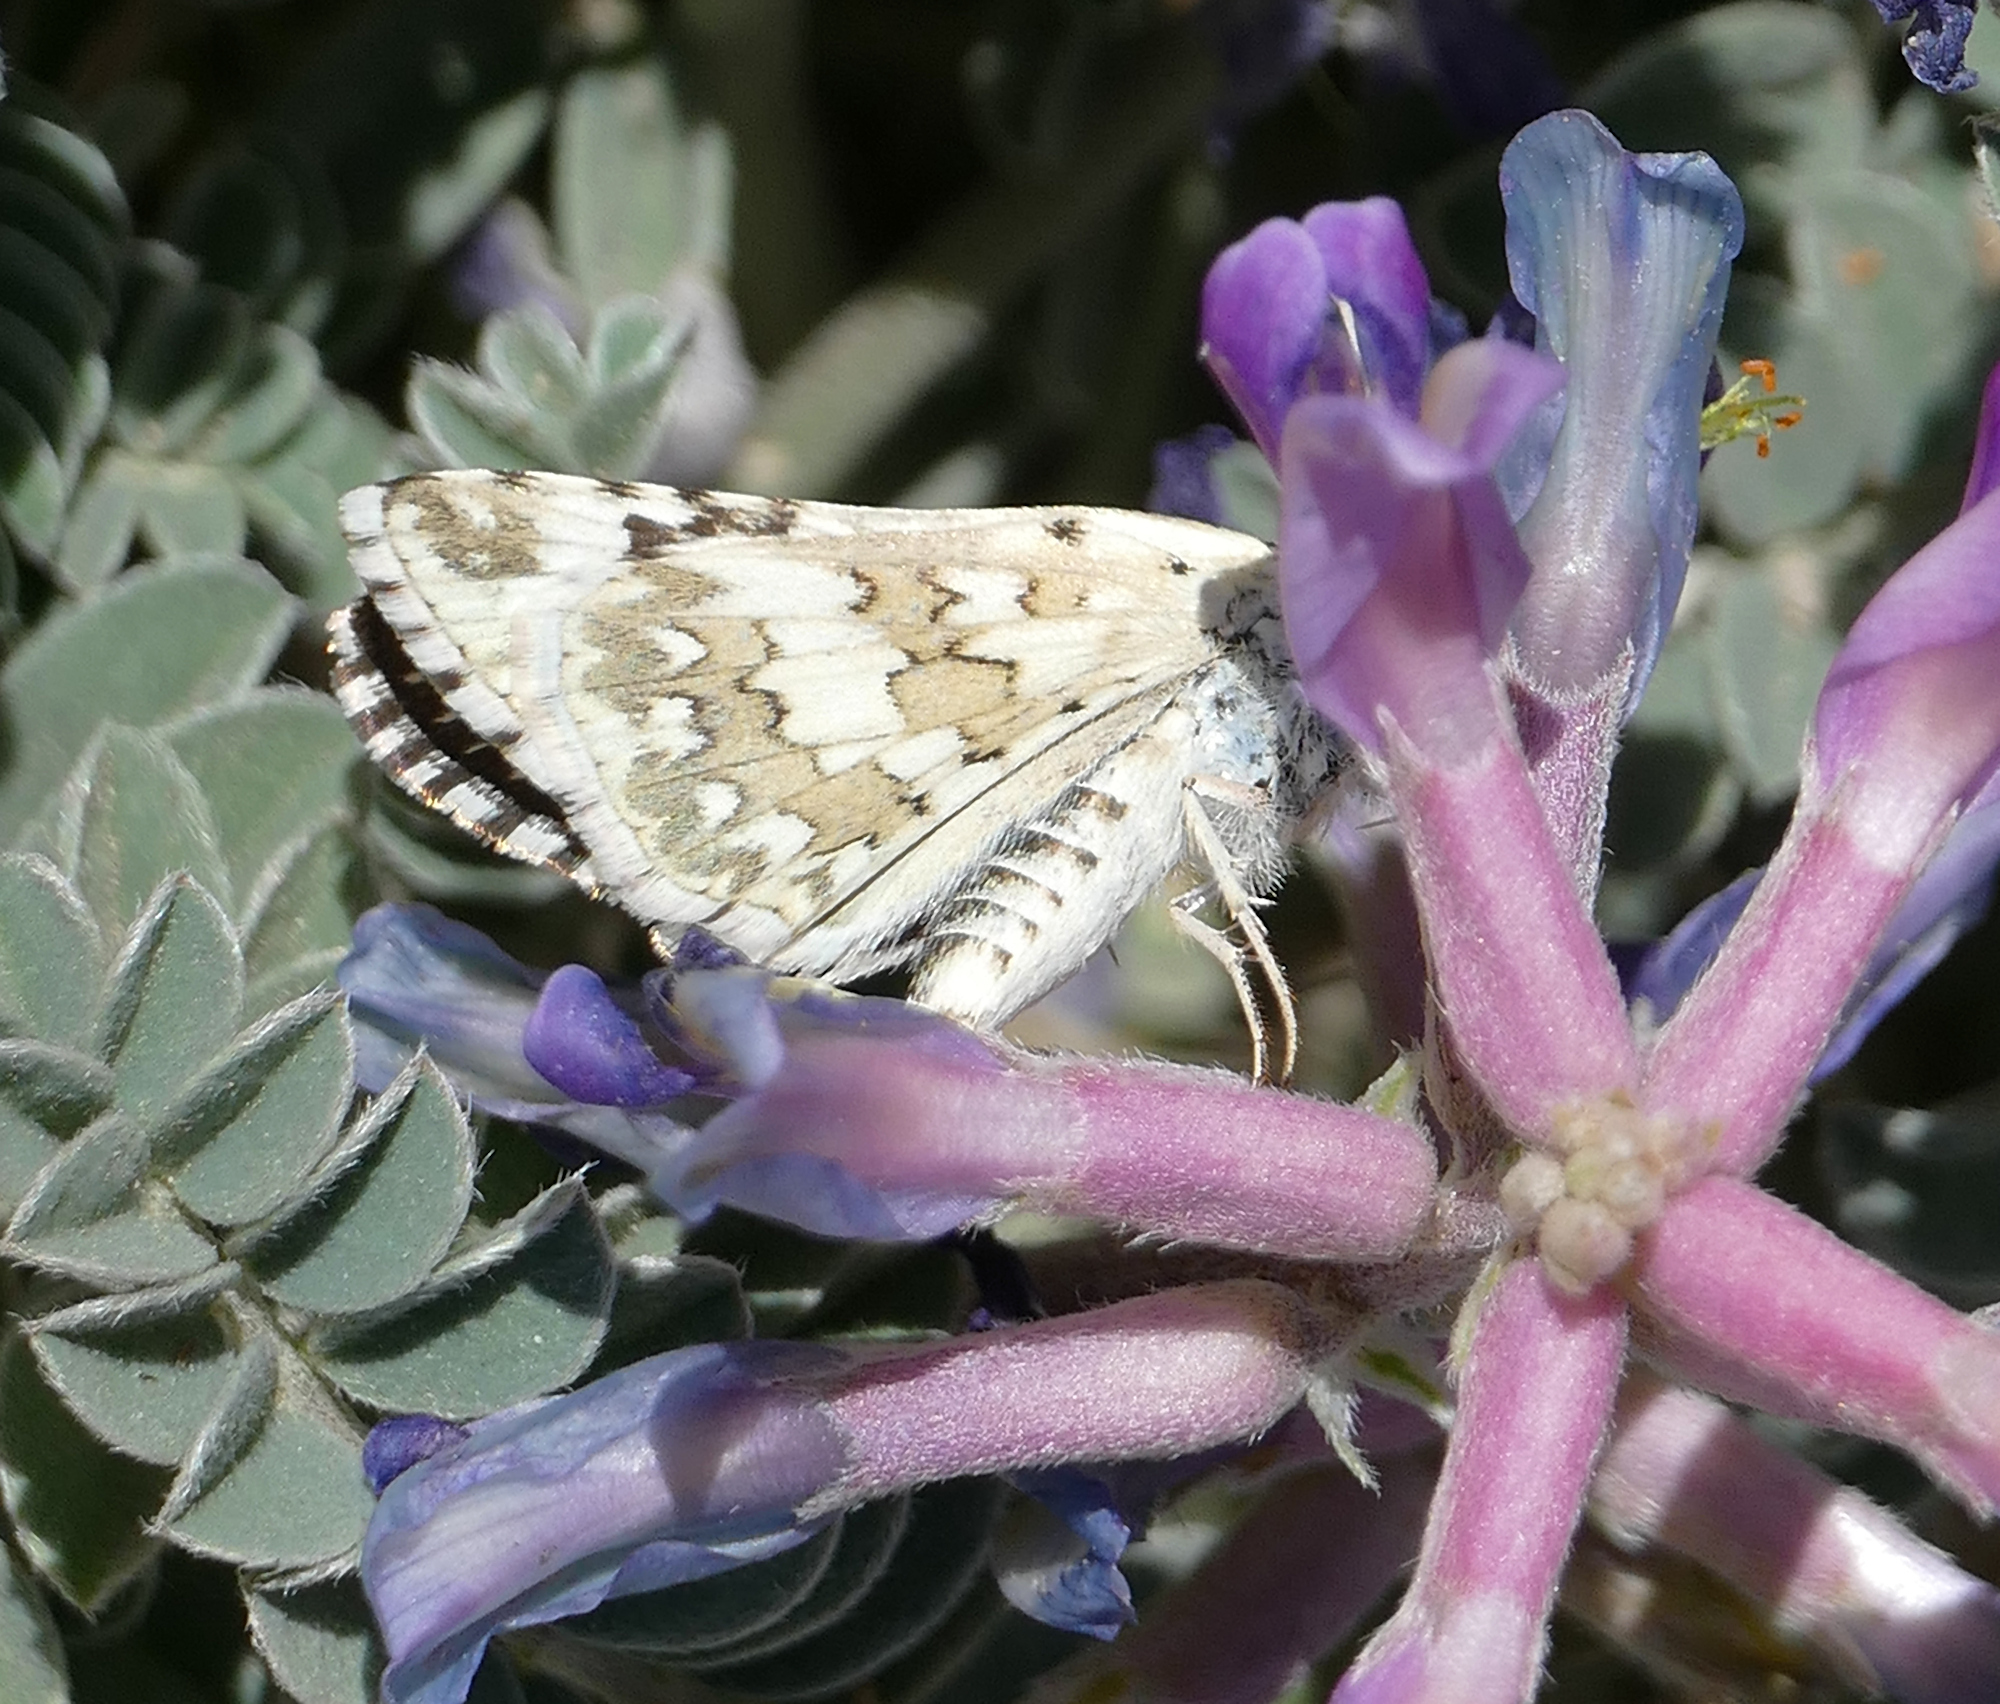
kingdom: Animalia
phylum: Arthropoda
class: Insecta
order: Lepidoptera
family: Hesperiidae
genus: Burnsius
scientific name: Burnsius
